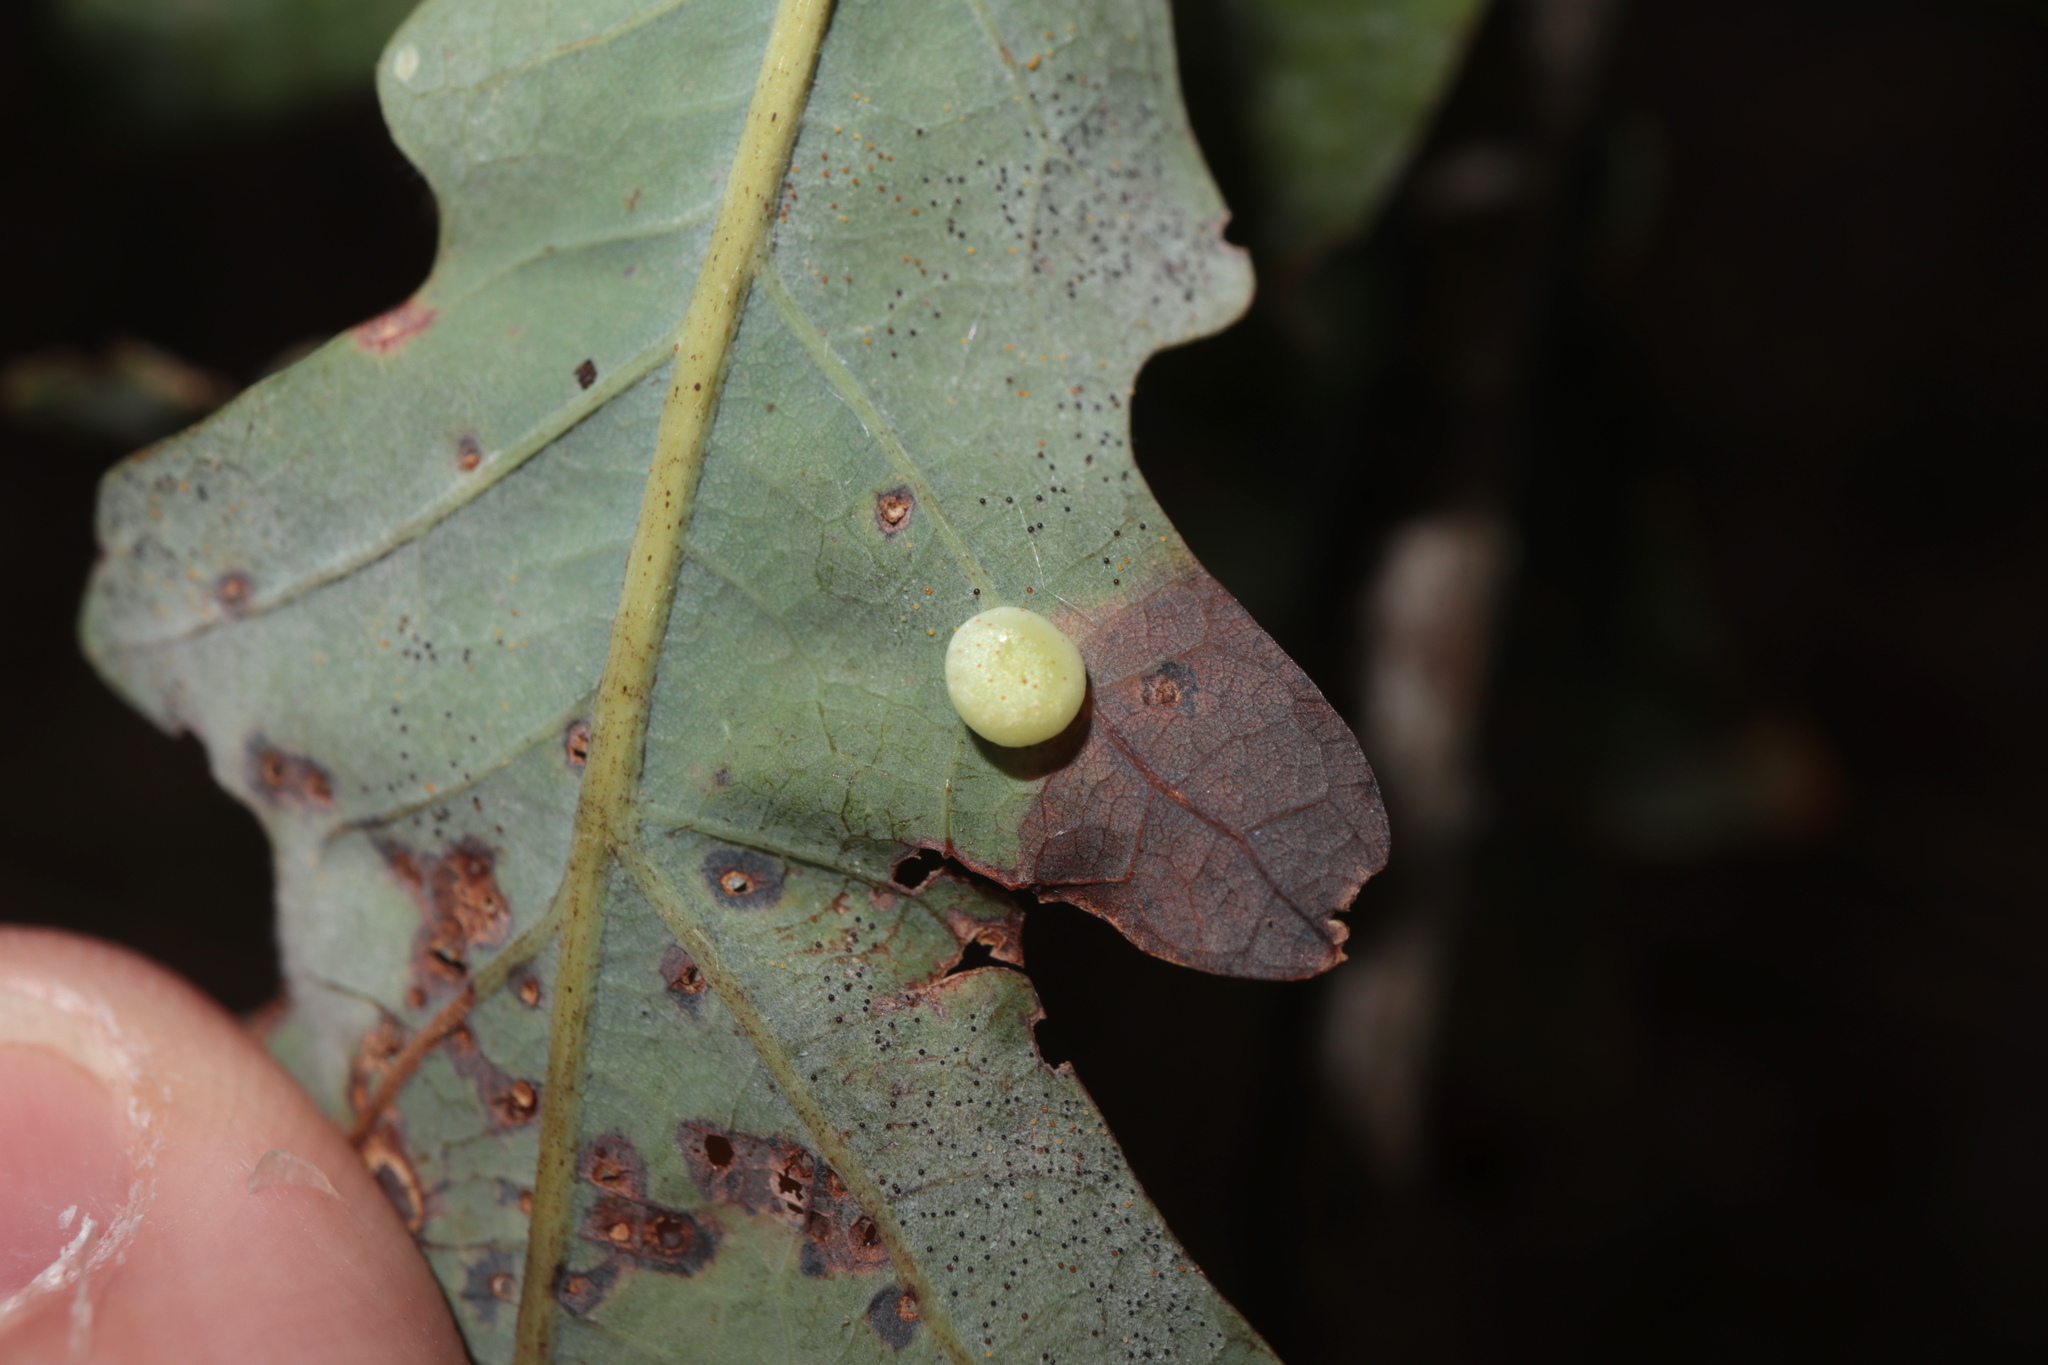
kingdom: Animalia
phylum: Arthropoda
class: Insecta
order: Hymenoptera
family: Cynipidae
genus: Phylloteras
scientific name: Phylloteras
